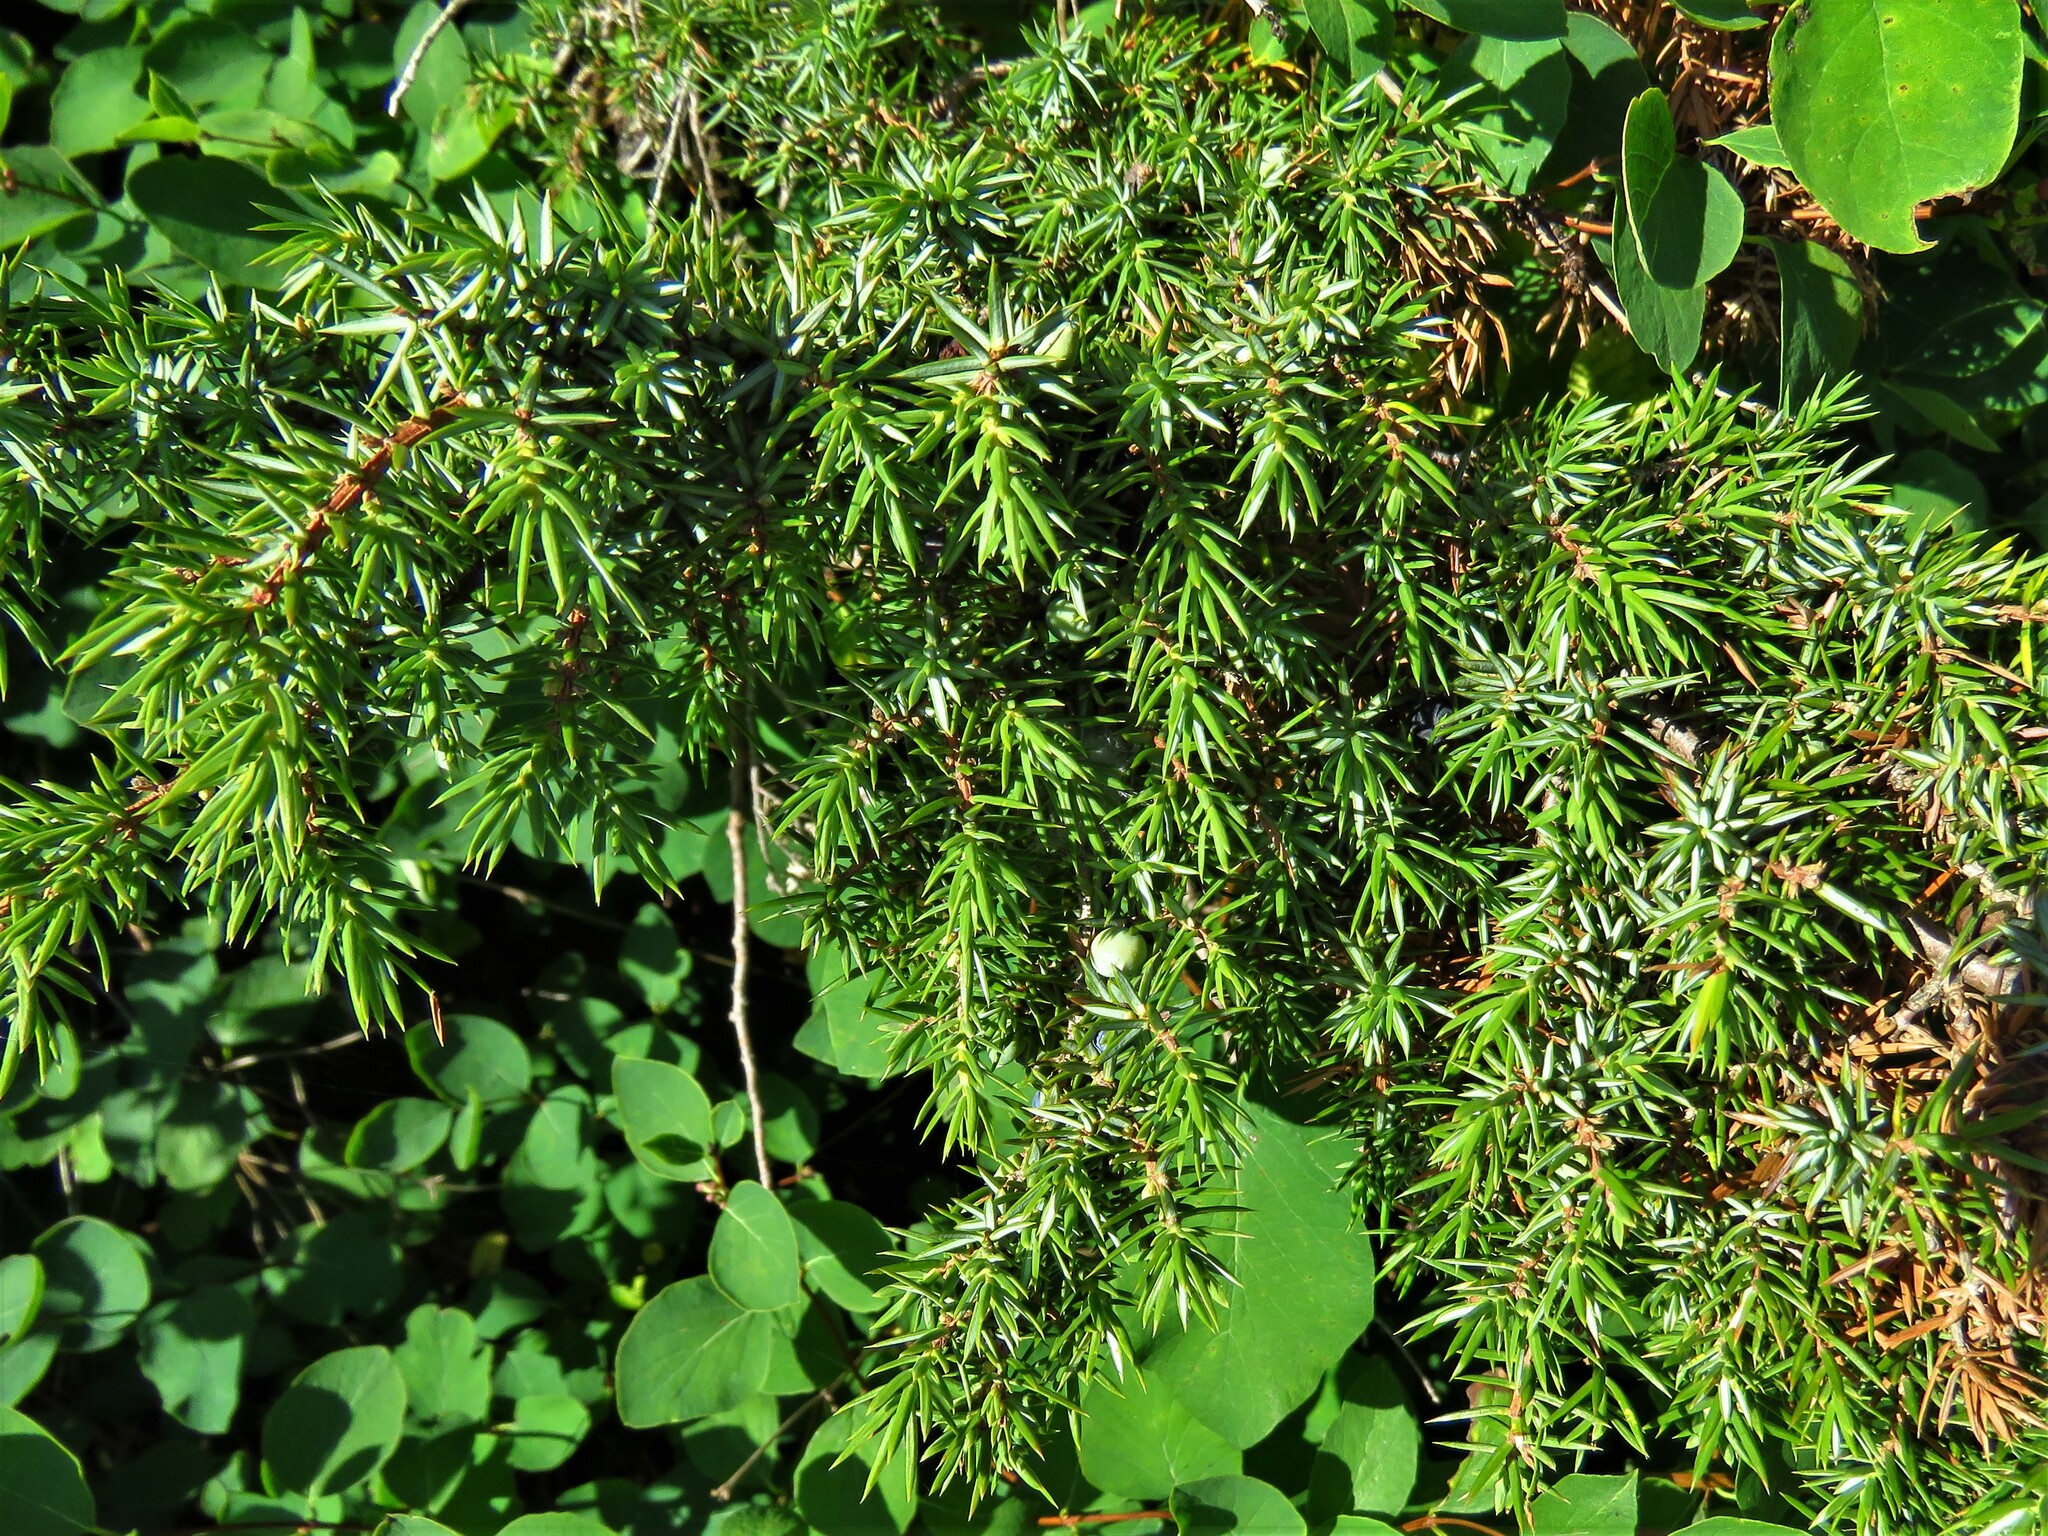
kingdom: Plantae
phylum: Tracheophyta
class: Pinopsida
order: Pinales
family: Cupressaceae
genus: Juniperus
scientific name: Juniperus communis
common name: Common juniper
